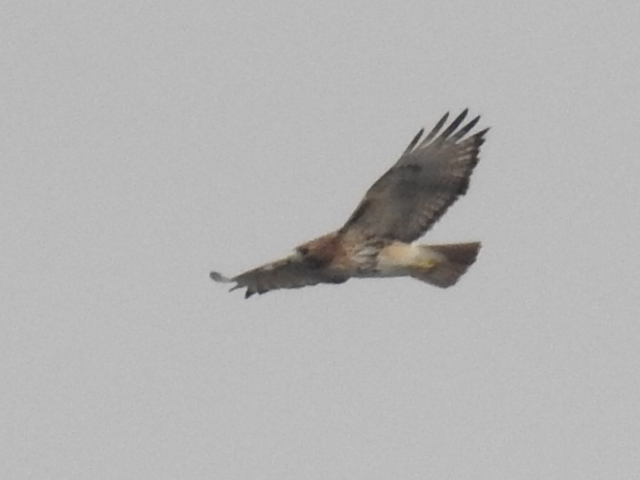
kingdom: Animalia
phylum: Chordata
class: Aves
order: Accipitriformes
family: Accipitridae
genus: Buteo
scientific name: Buteo jamaicensis
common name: Red-tailed hawk
